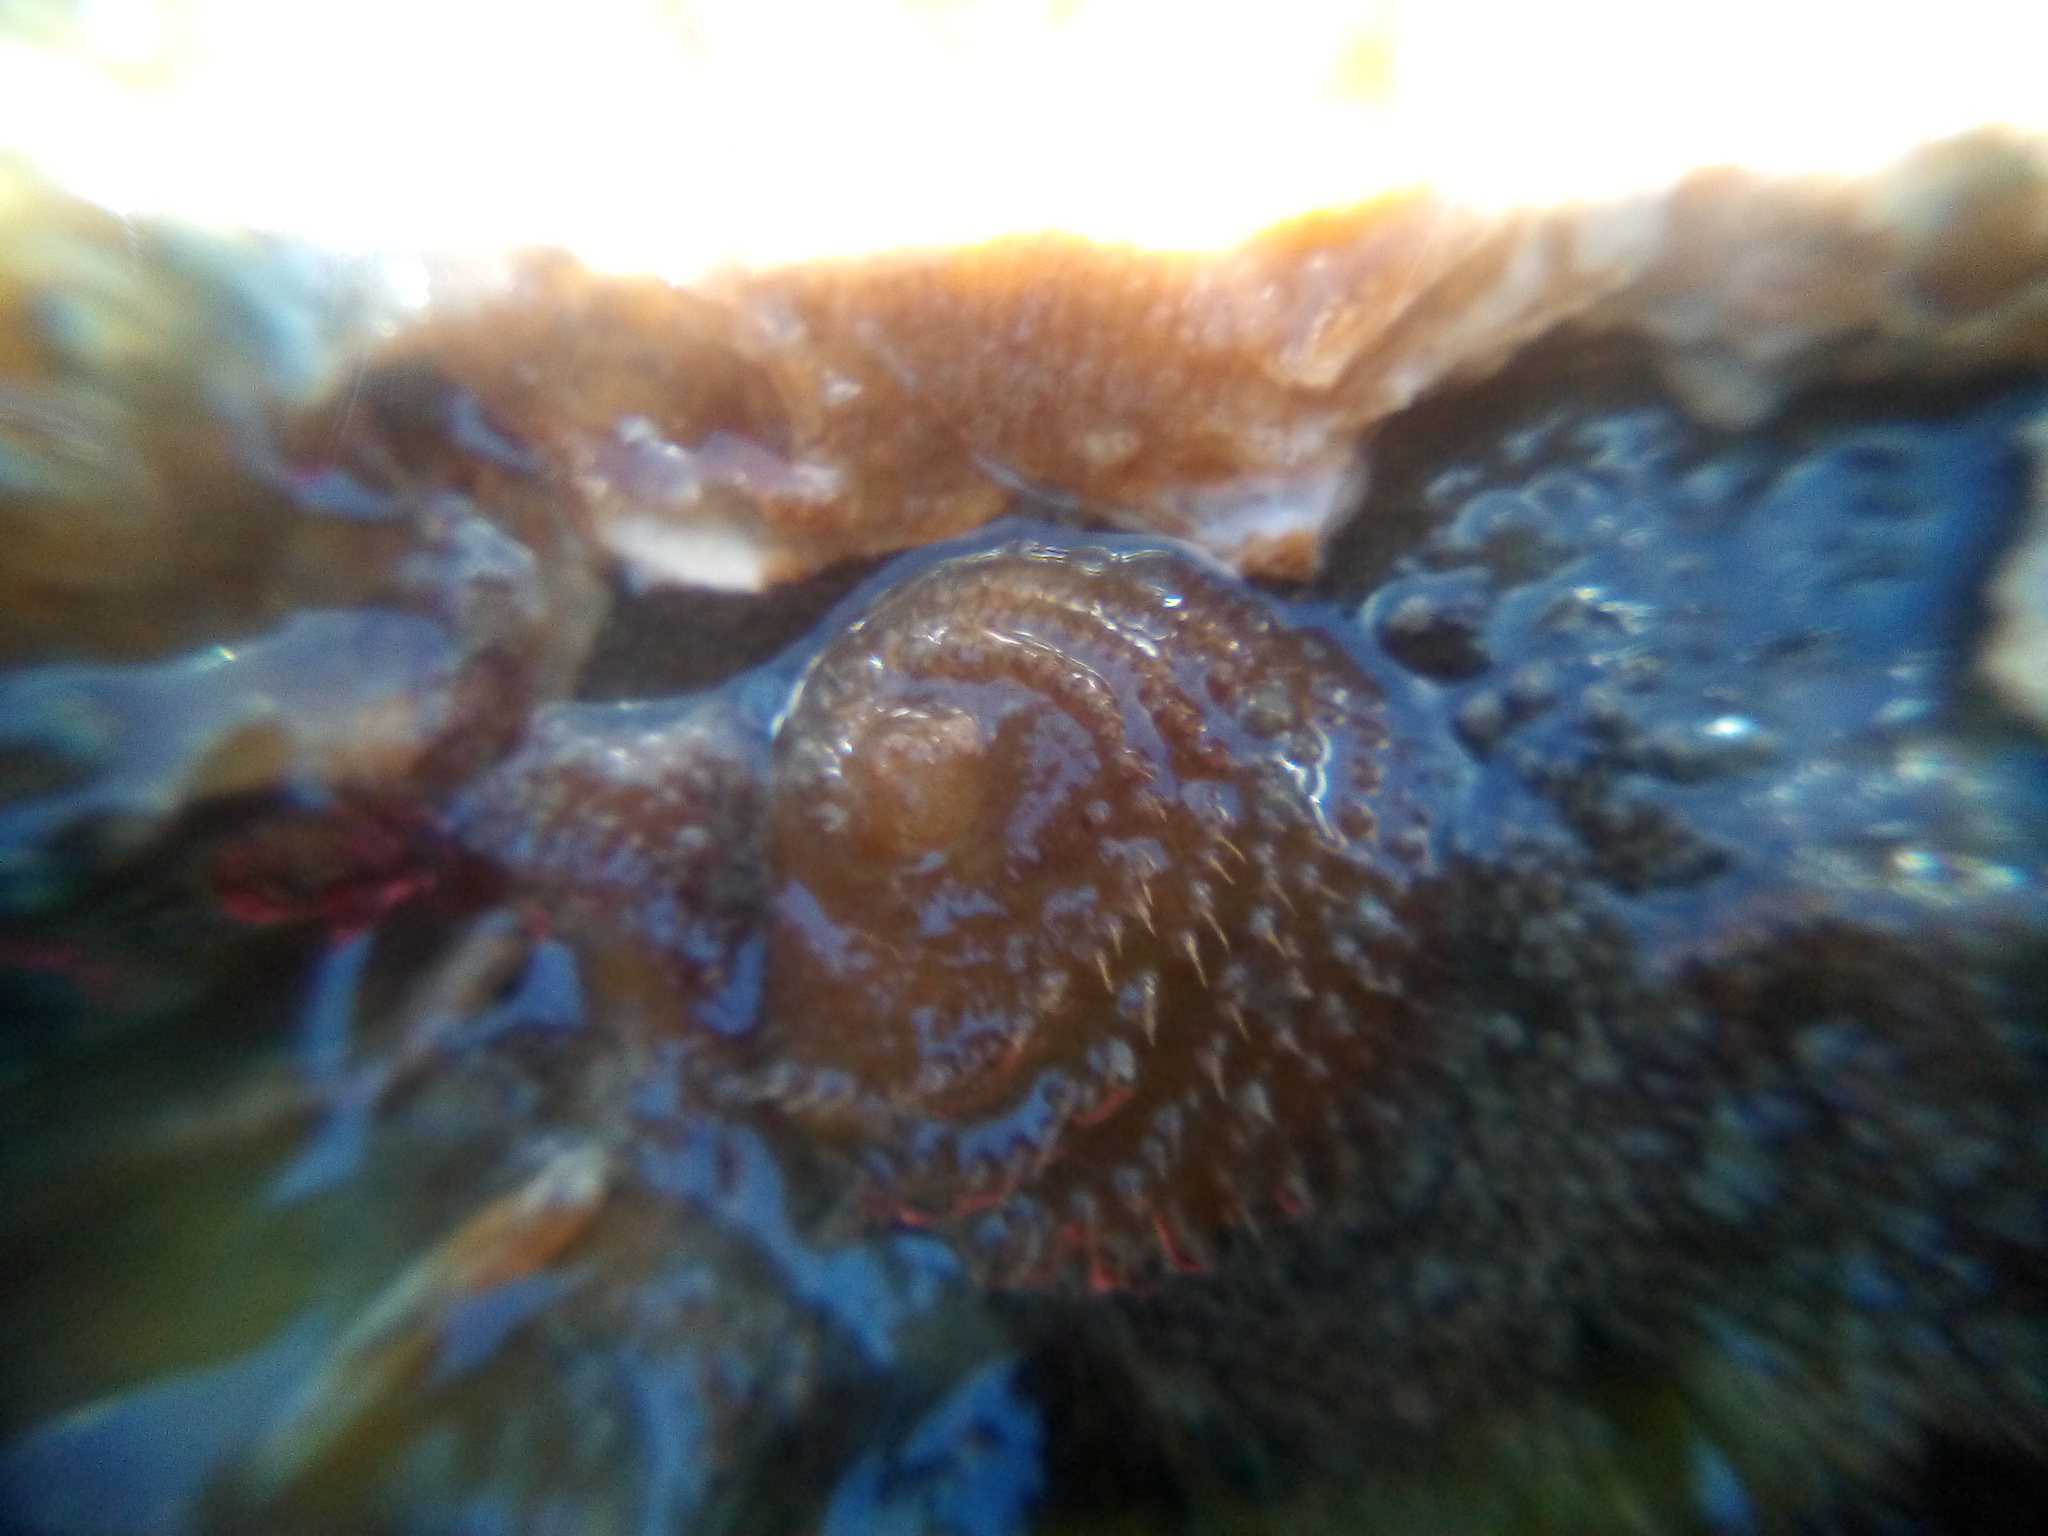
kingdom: Animalia
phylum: Mollusca
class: Gastropoda
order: Littorinimorpha
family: Calyptraeidae
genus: Sigapatella
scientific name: Sigapatella novaezelandiae
